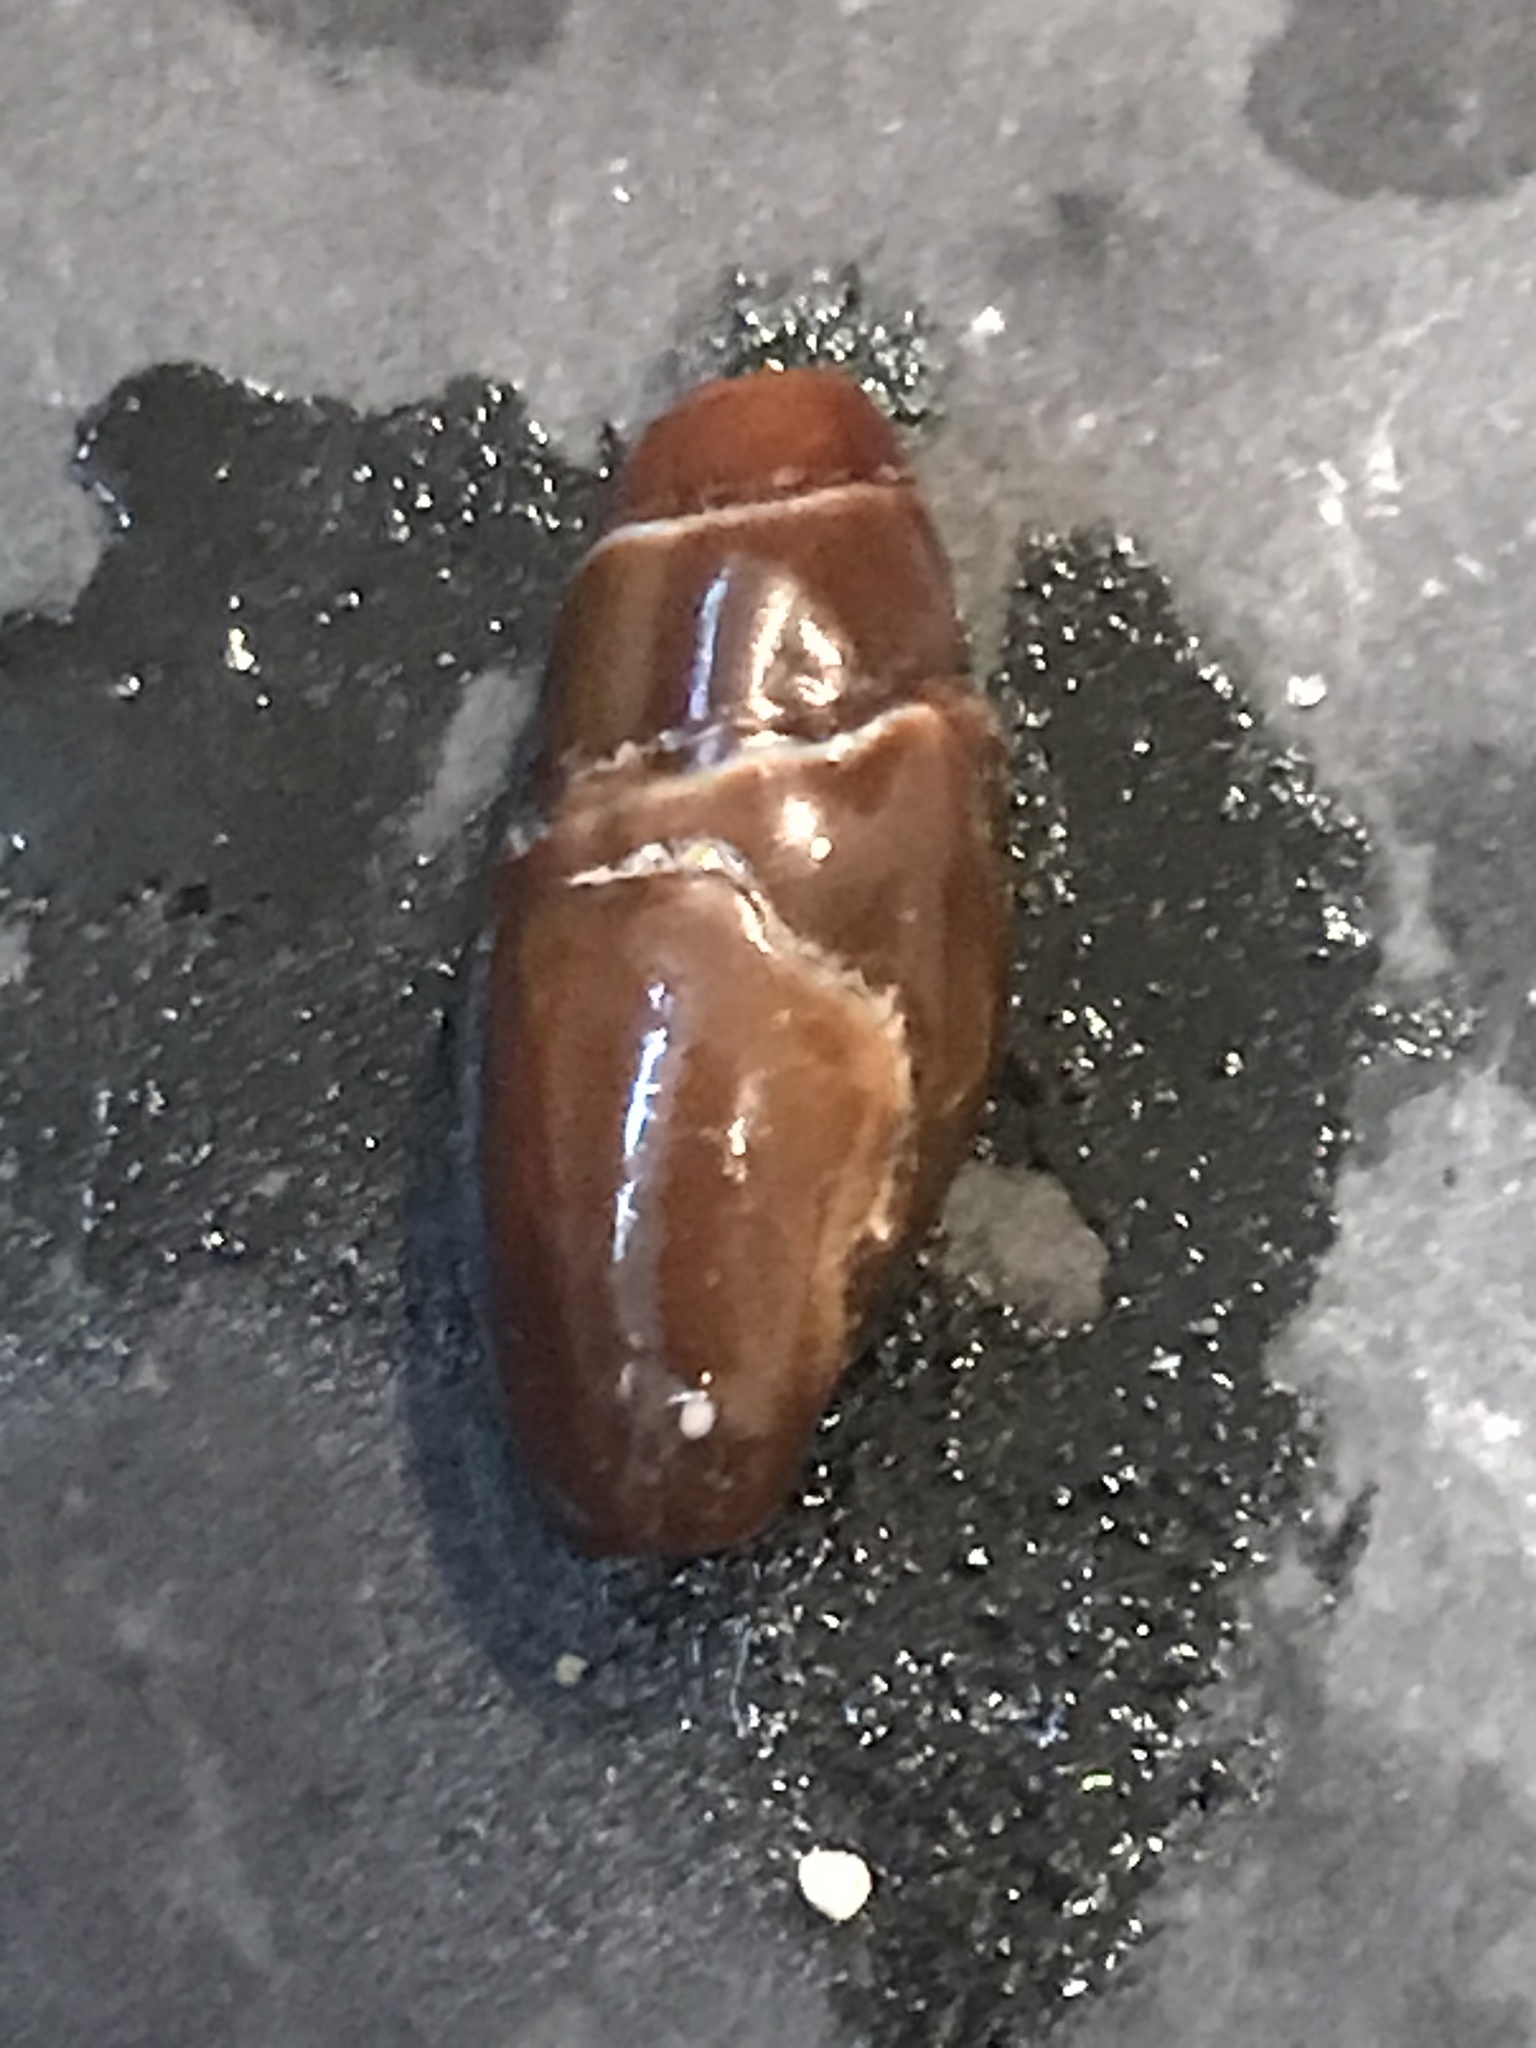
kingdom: Animalia
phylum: Mollusca
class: Gastropoda
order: Neogastropoda
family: Mitridae
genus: Atrimitra
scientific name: Atrimitra idae
